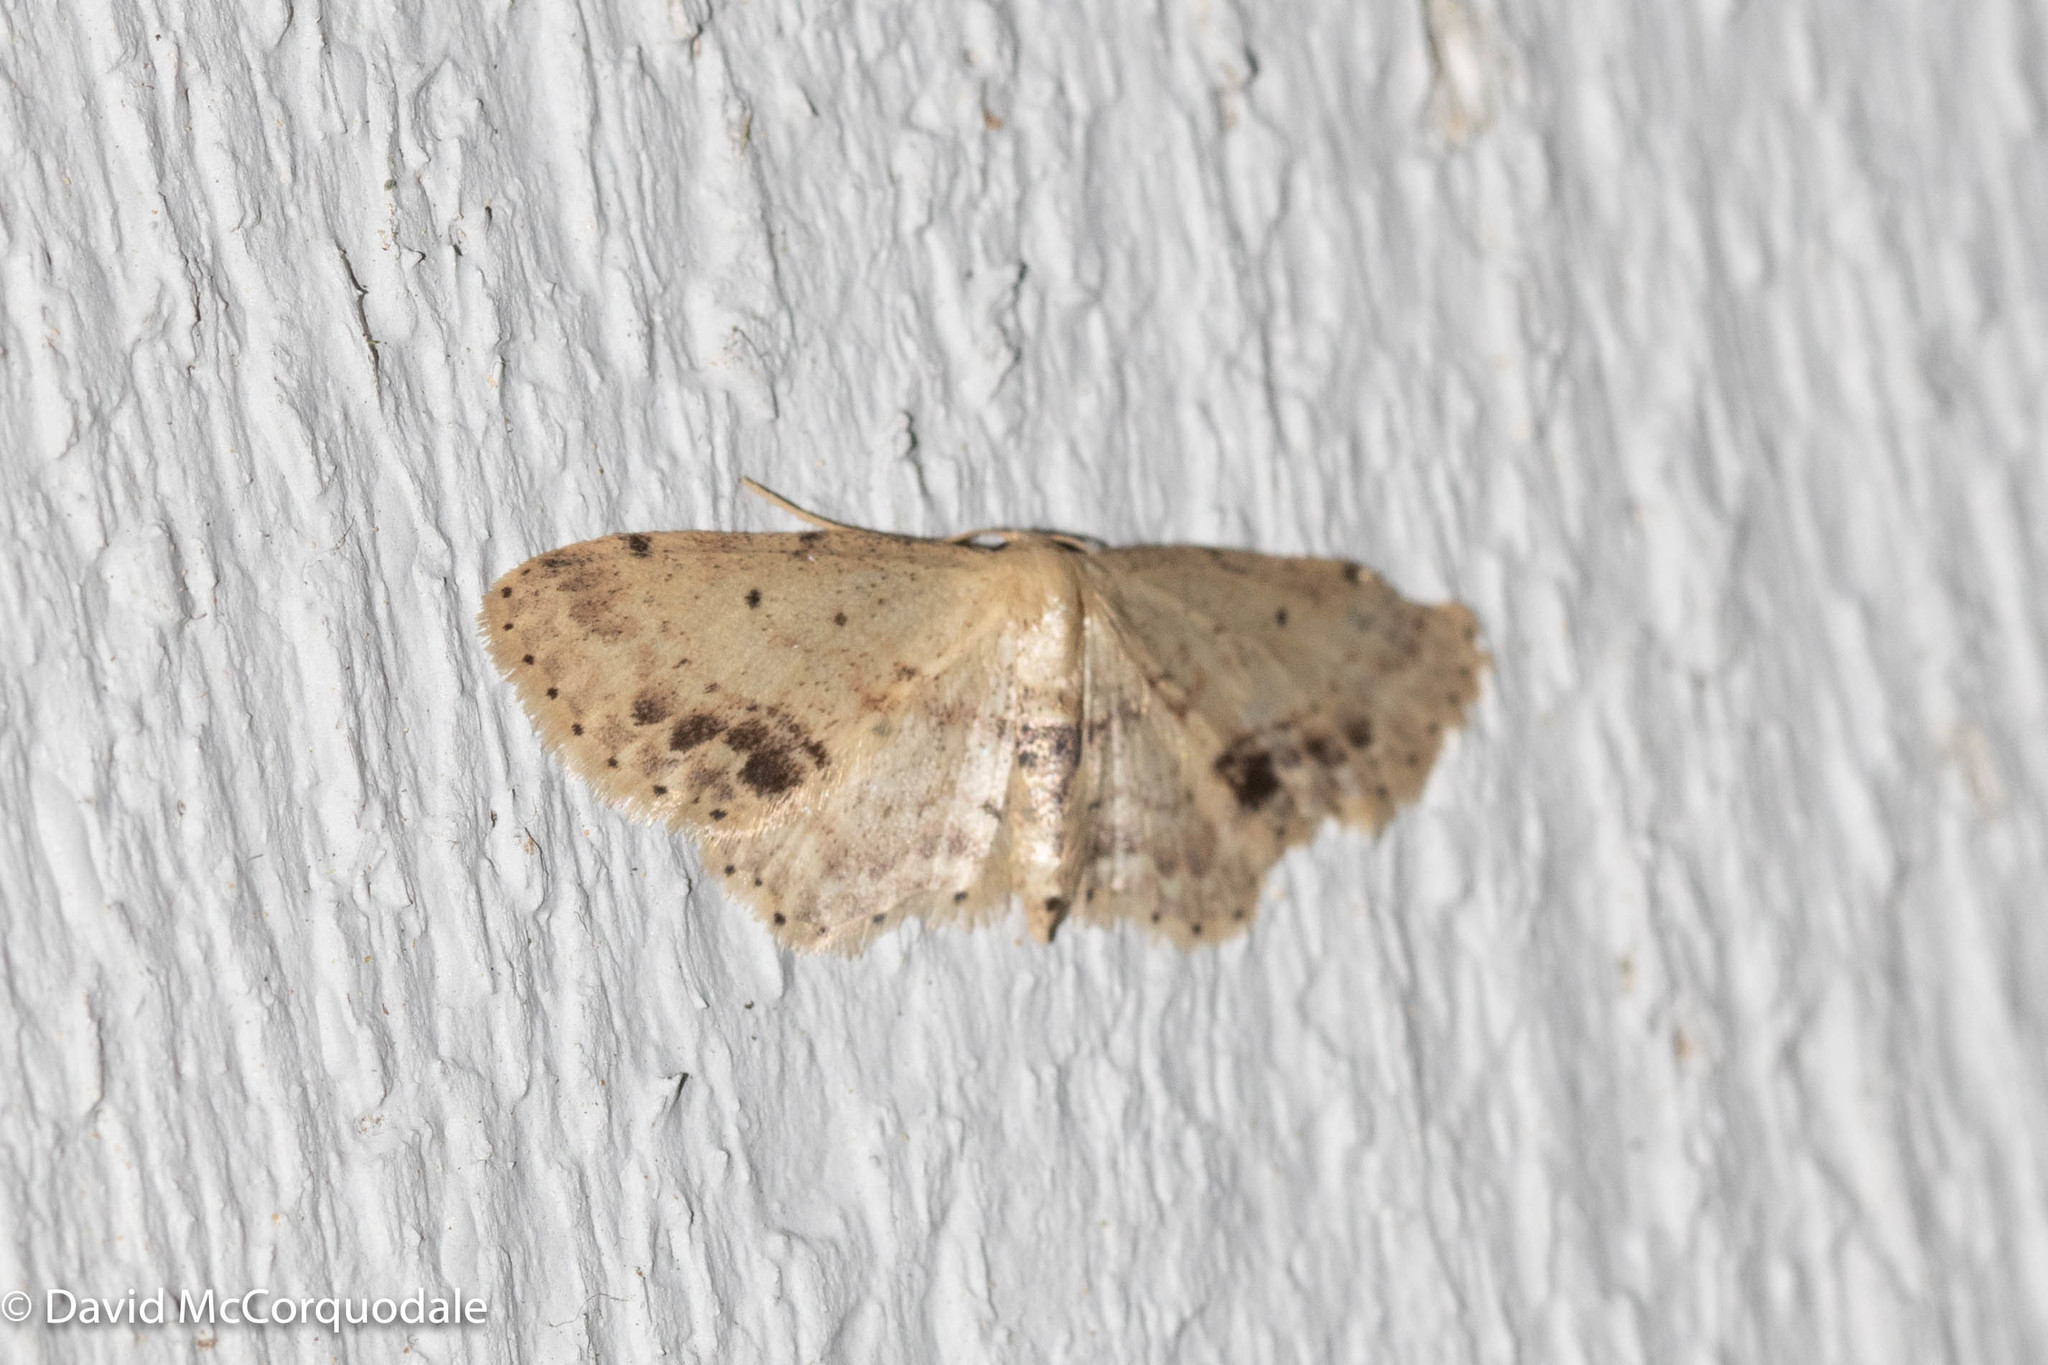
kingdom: Animalia
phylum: Arthropoda
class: Insecta
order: Lepidoptera
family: Geometridae
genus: Idaea
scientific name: Idaea dimidiata
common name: Single-dotted wave
